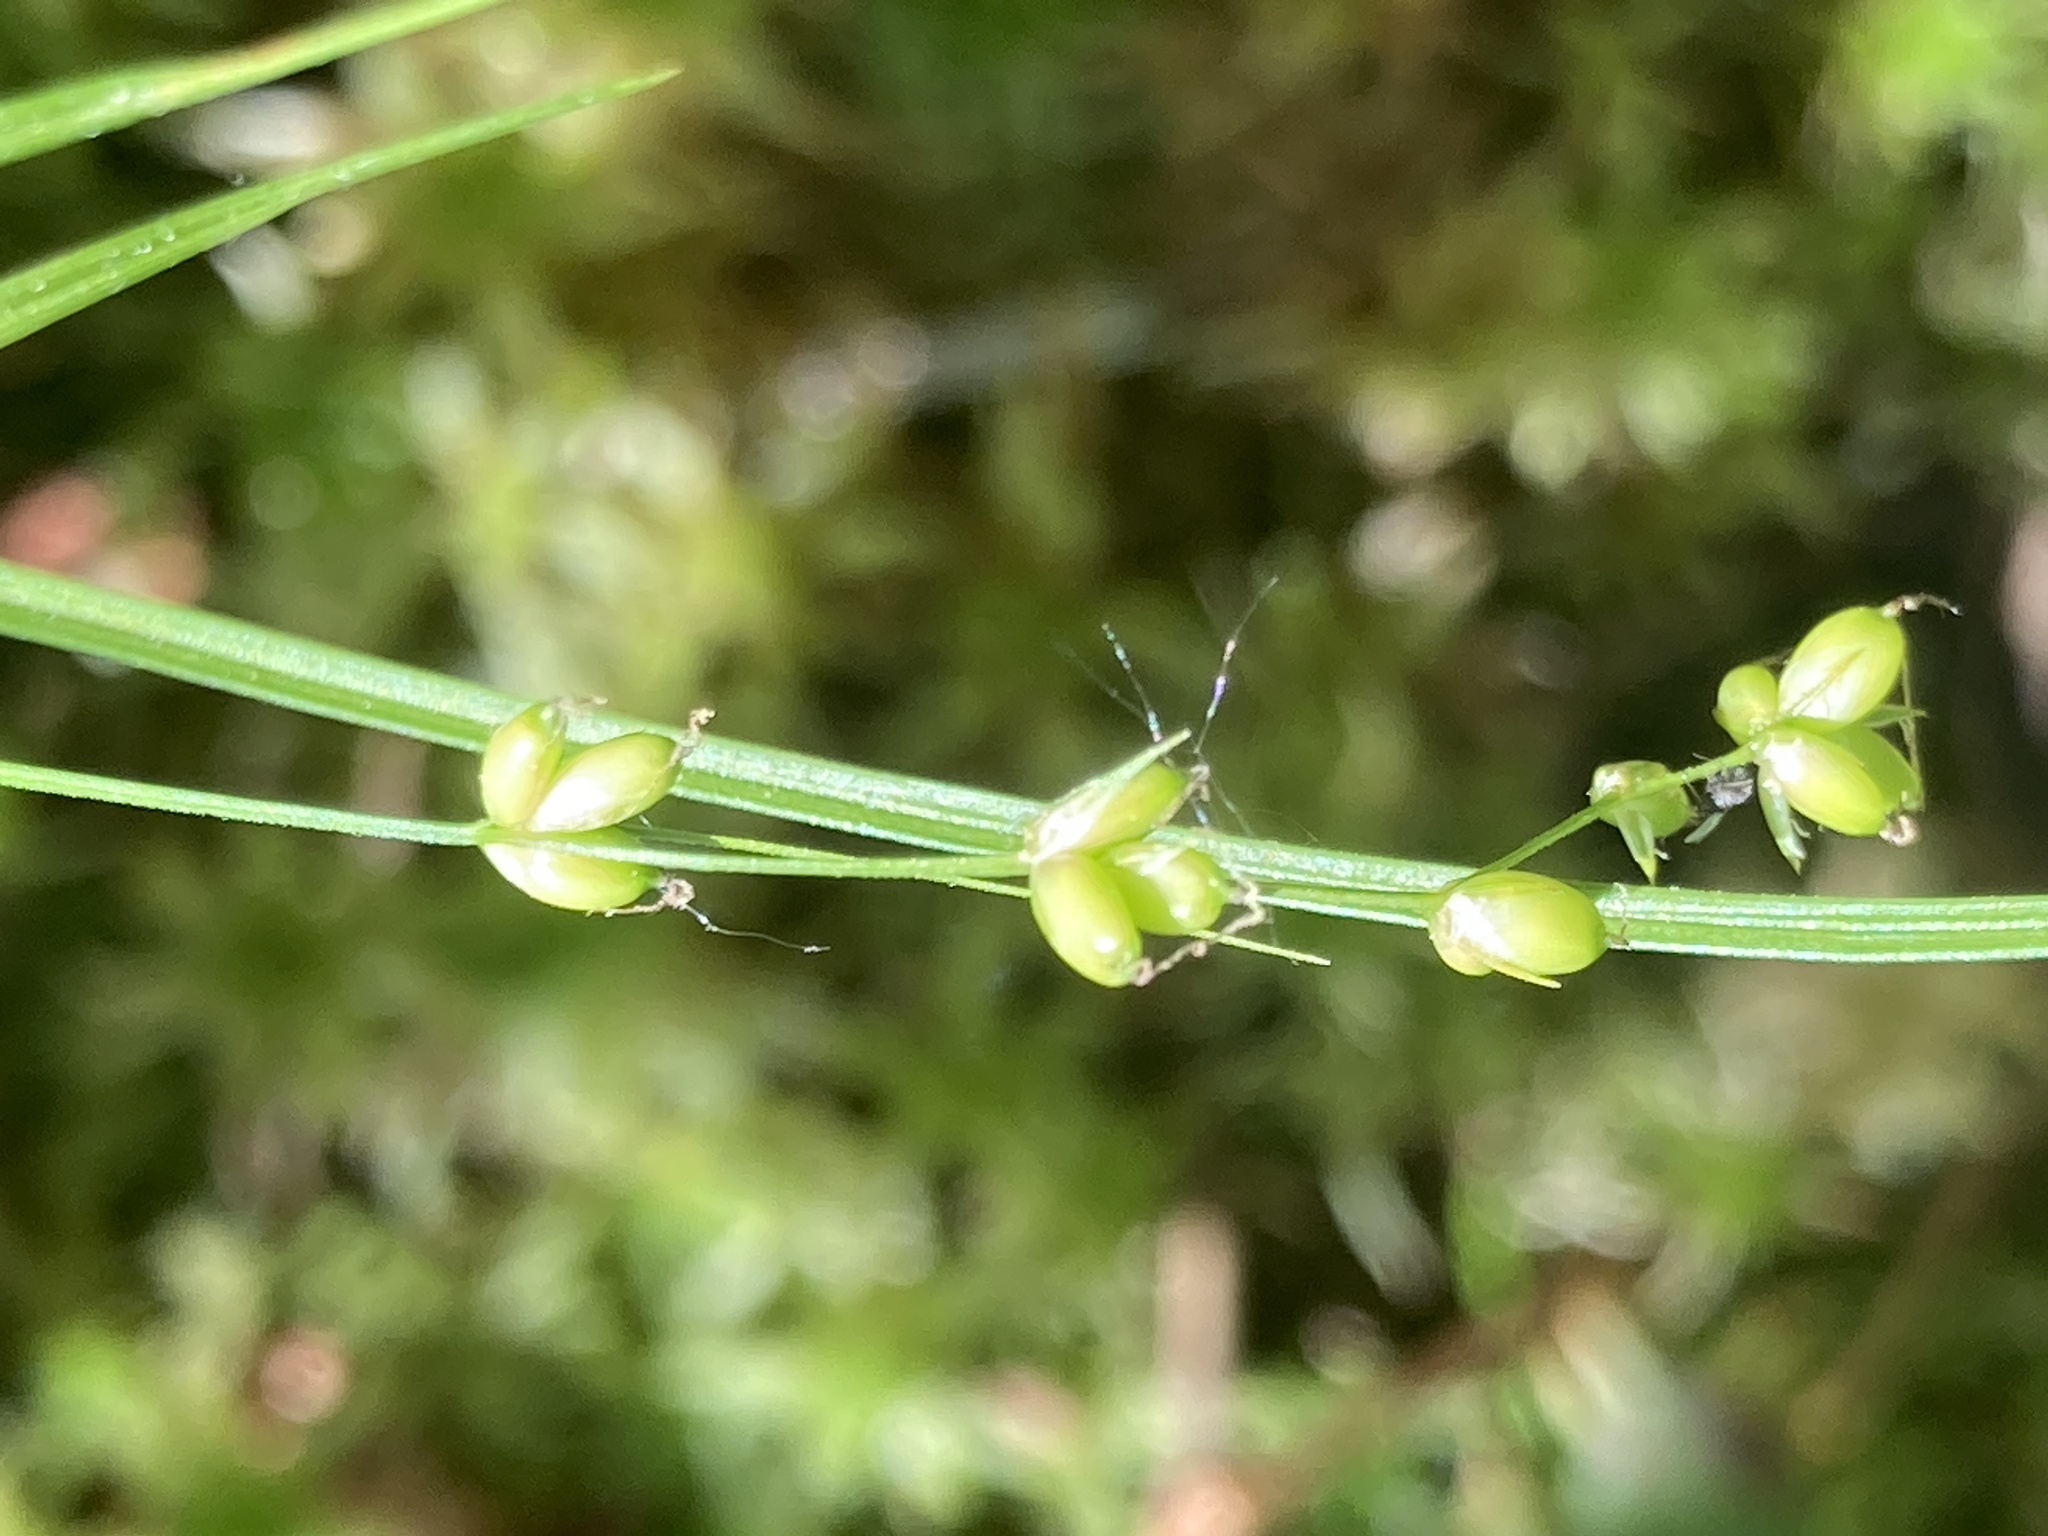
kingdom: Plantae
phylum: Tracheophyta
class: Liliopsida
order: Poales
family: Cyperaceae
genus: Carex
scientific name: Carex disperma
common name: Short-leaved sedge
